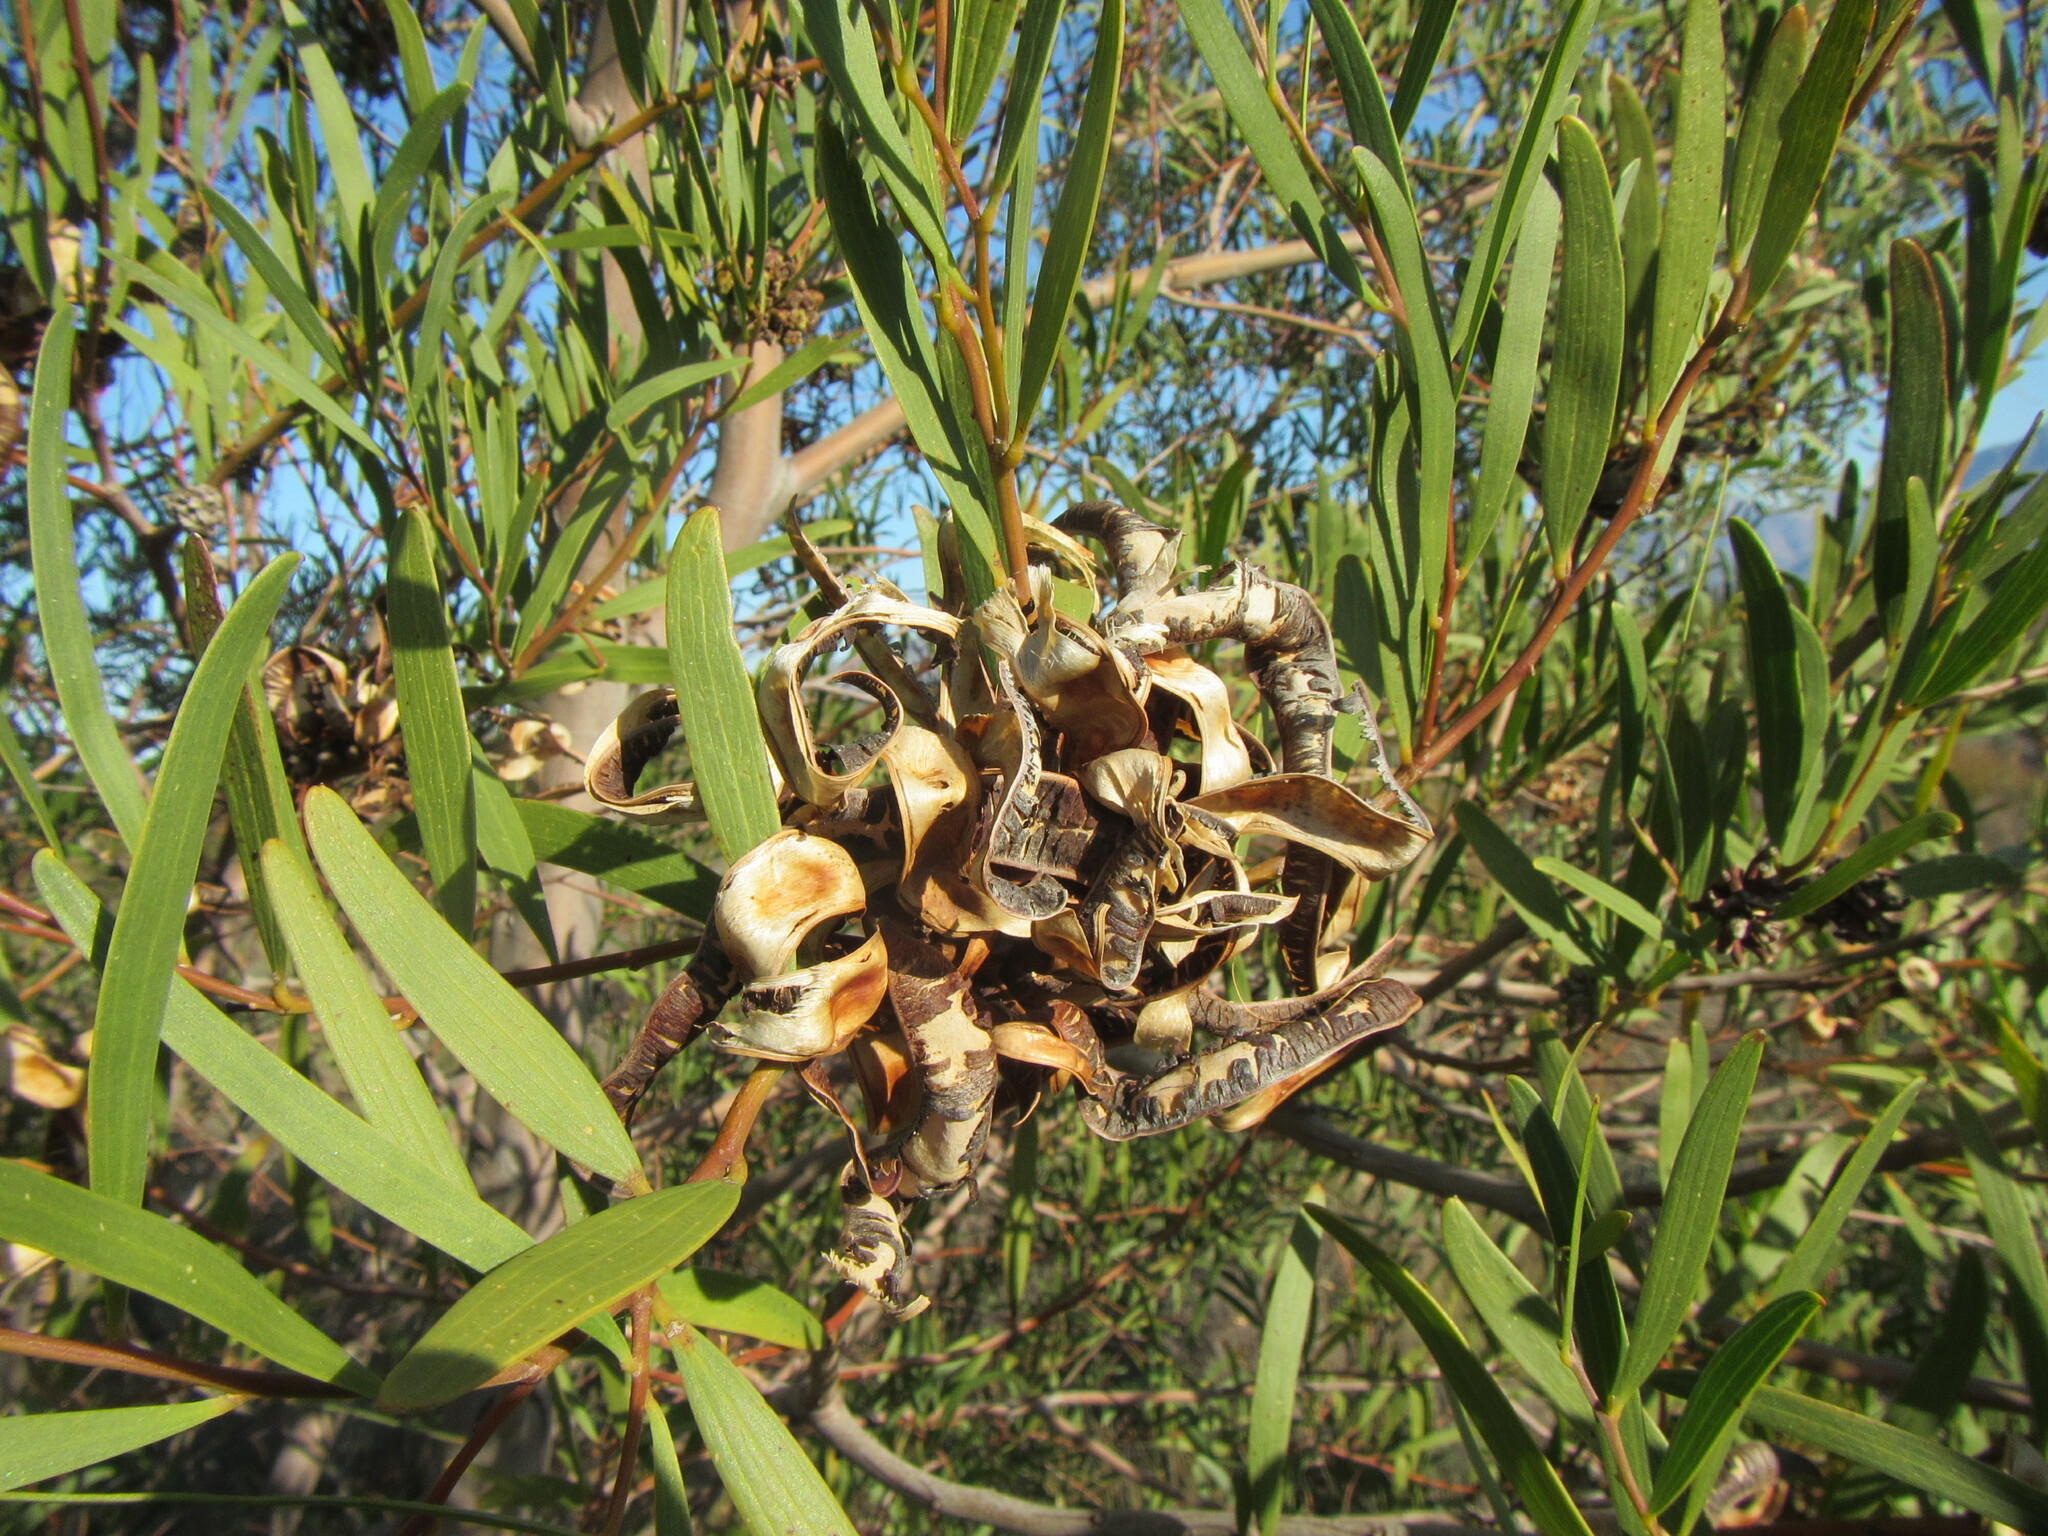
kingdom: Plantae
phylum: Tracheophyta
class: Magnoliopsida
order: Fabales
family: Fabaceae
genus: Acacia
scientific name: Acacia cyclops
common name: Coastal wattle
